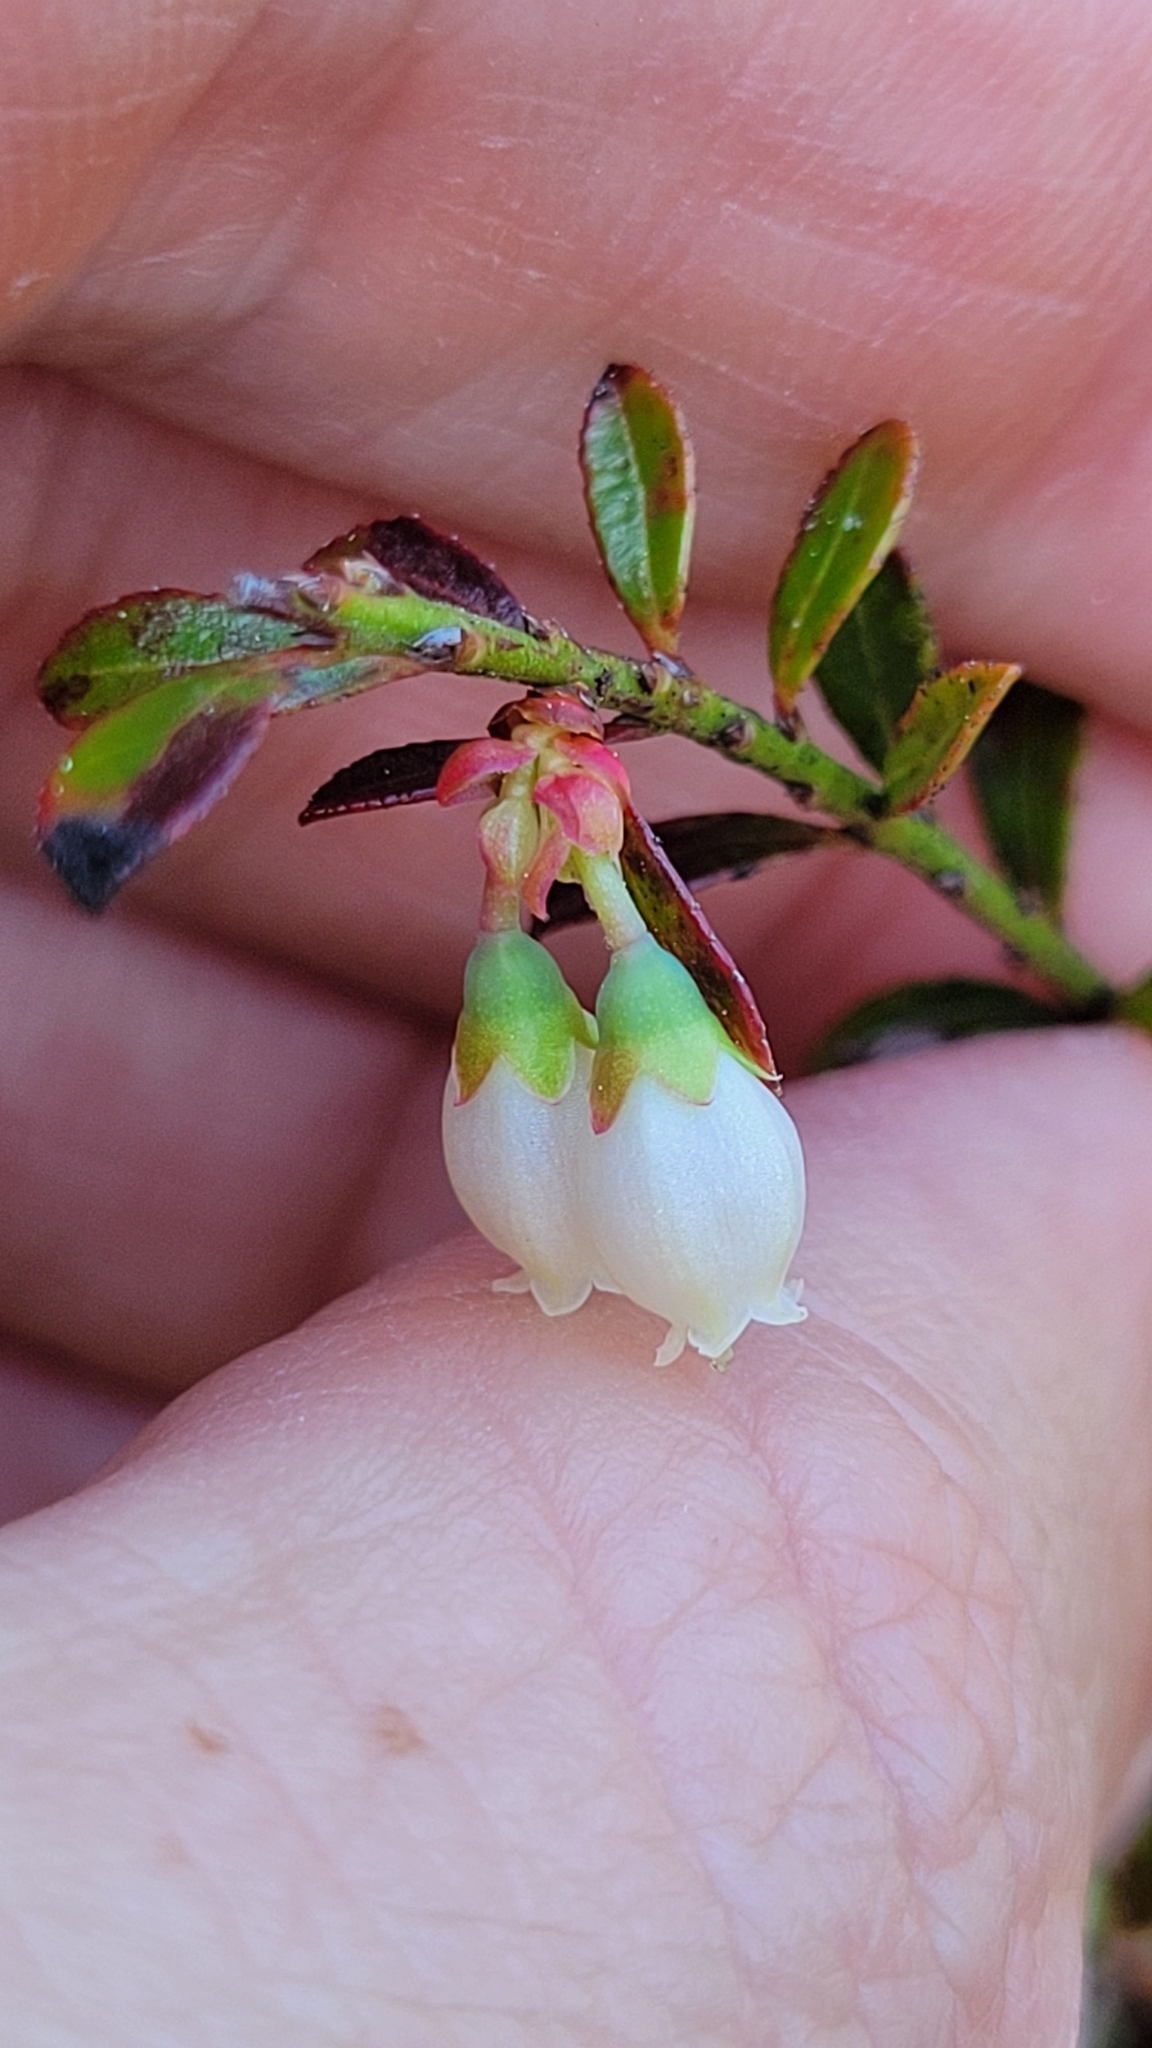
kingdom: Plantae
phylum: Tracheophyta
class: Magnoliopsida
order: Ericales
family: Ericaceae
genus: Vaccinium
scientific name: Vaccinium myrsinites
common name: Evergreen blueberry
